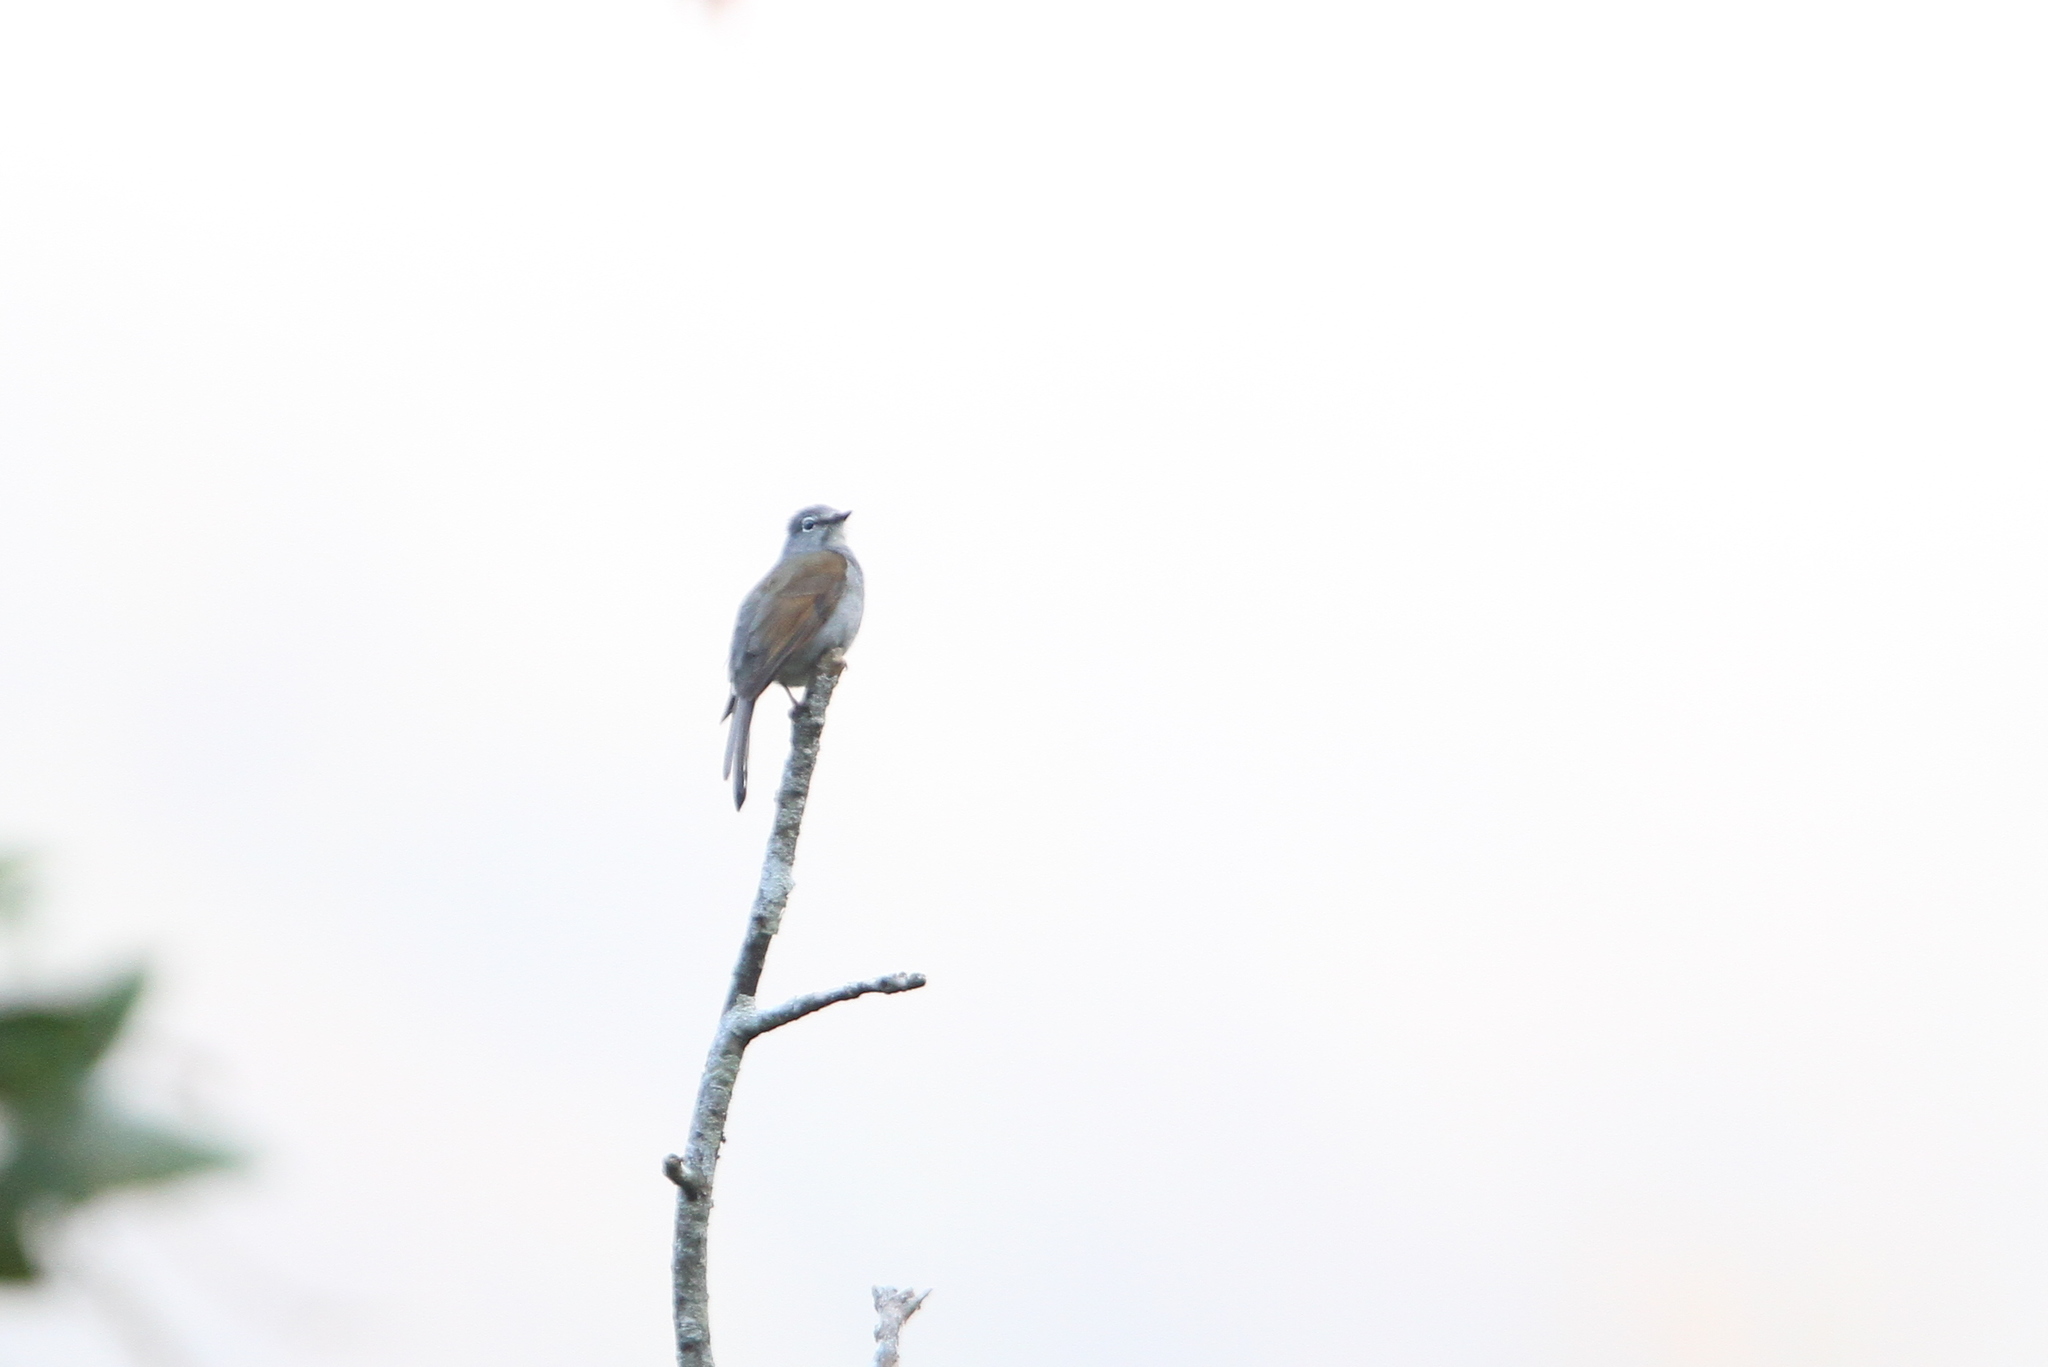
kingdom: Animalia
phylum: Chordata
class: Aves
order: Passeriformes
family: Turdidae
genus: Myadestes
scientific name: Myadestes occidentalis
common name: Brown-backed solitaire
